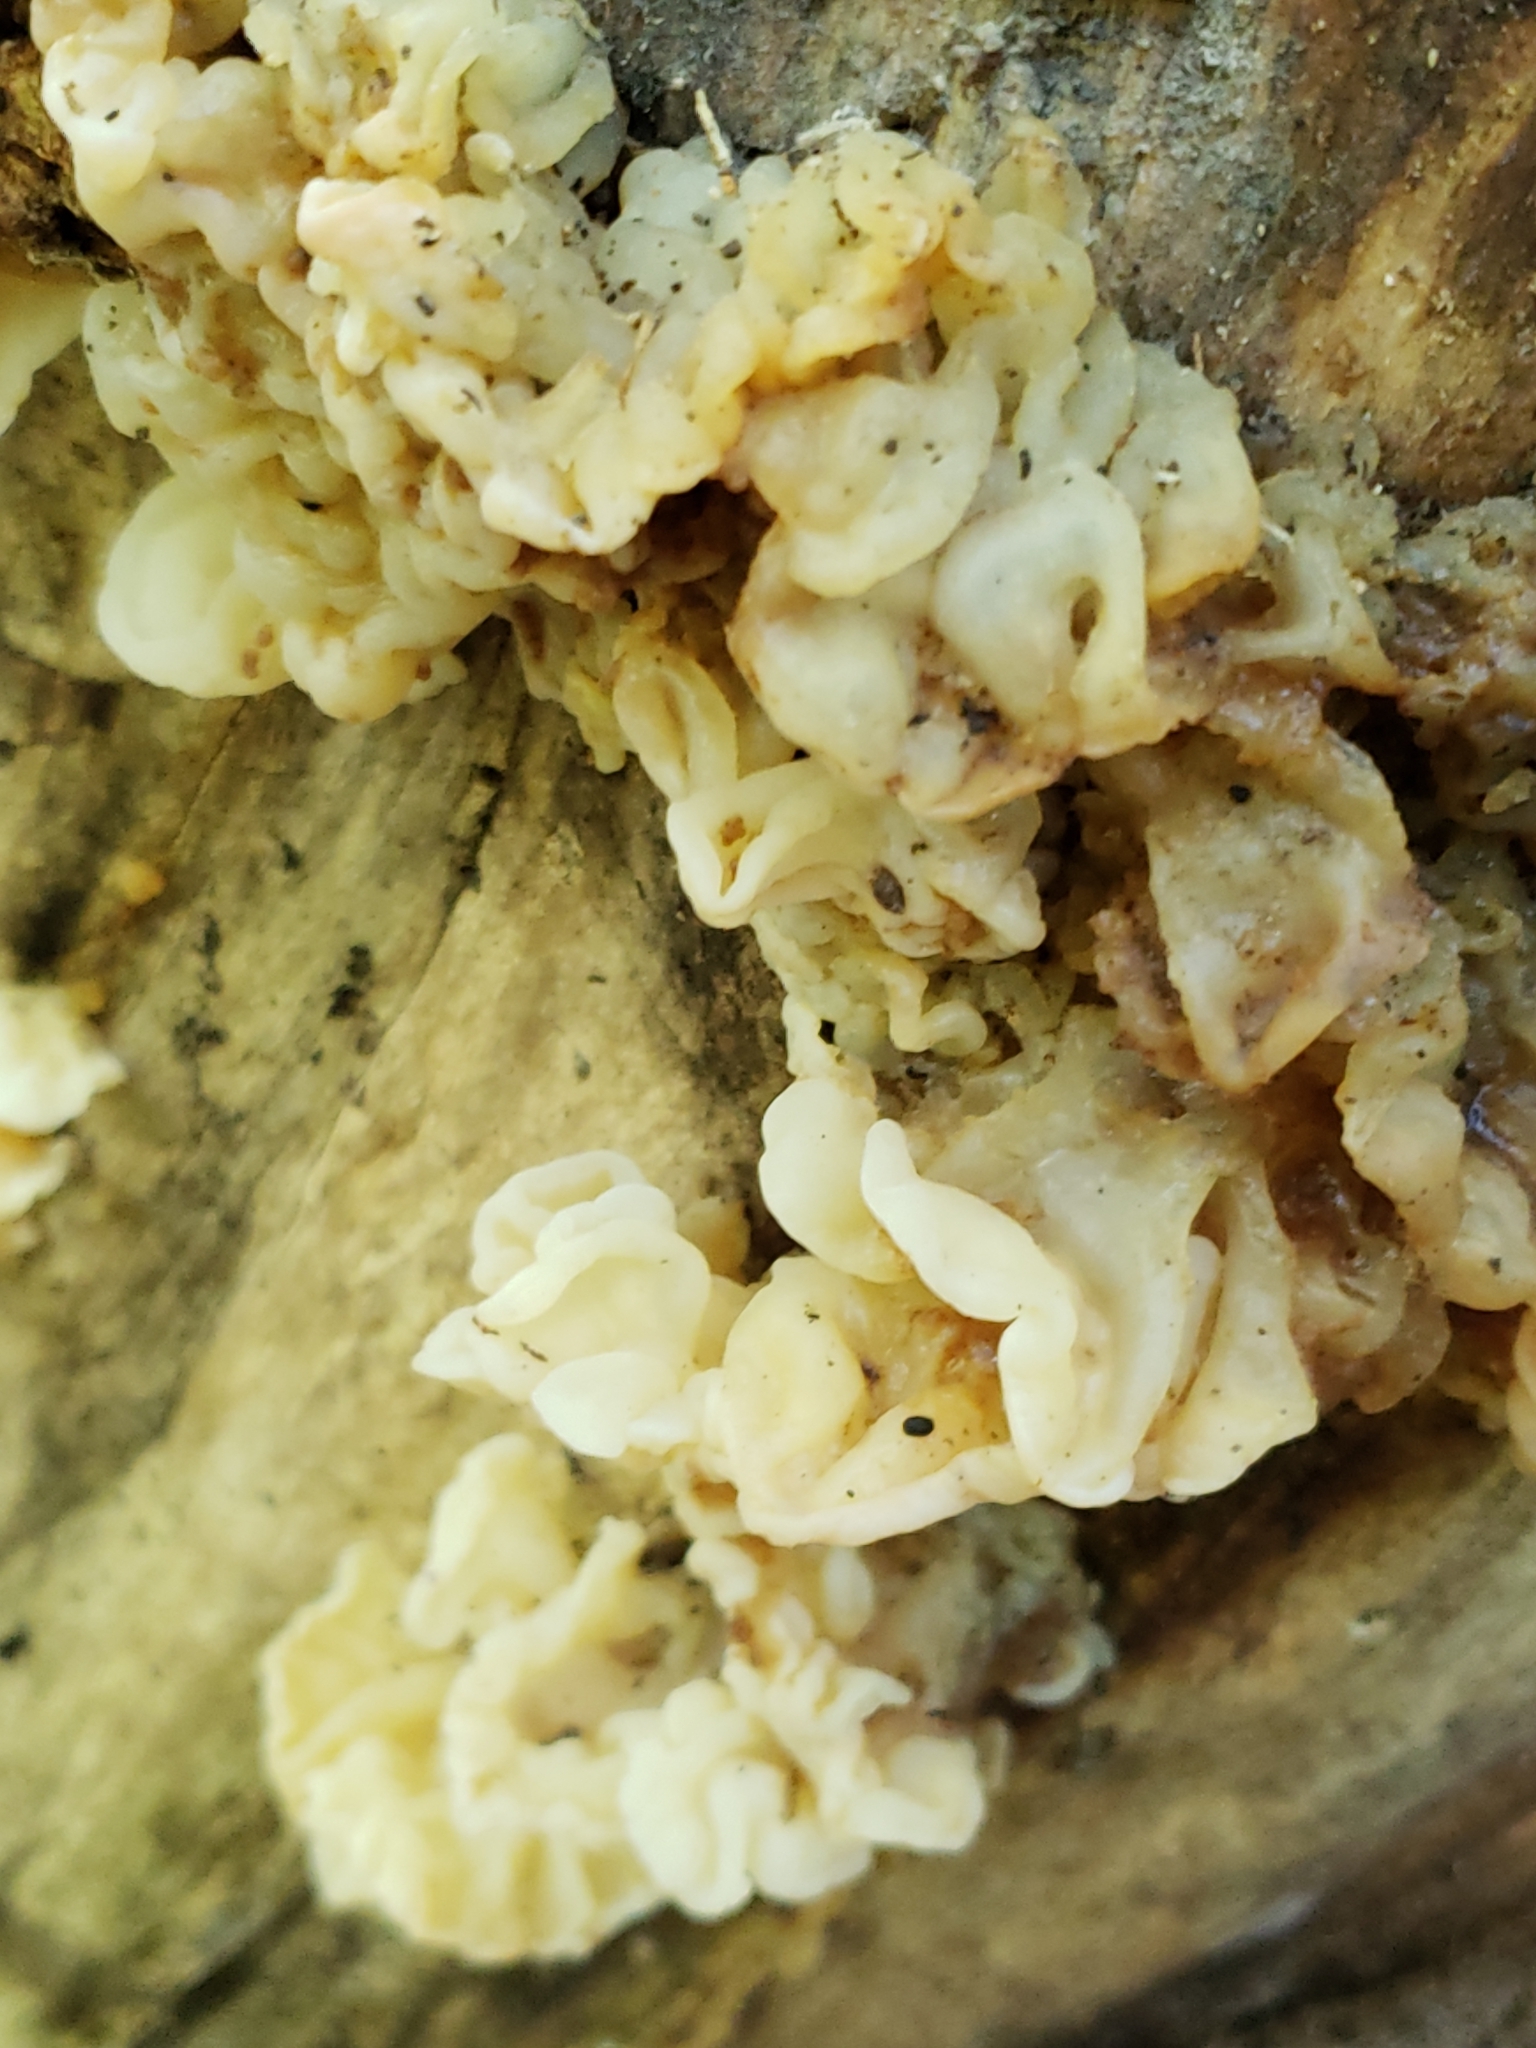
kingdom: Fungi
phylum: Basidiomycota
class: Agaricomycetes
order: Auriculariales
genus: Ductifera
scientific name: Ductifera pululahuana
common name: White jelly fungus
